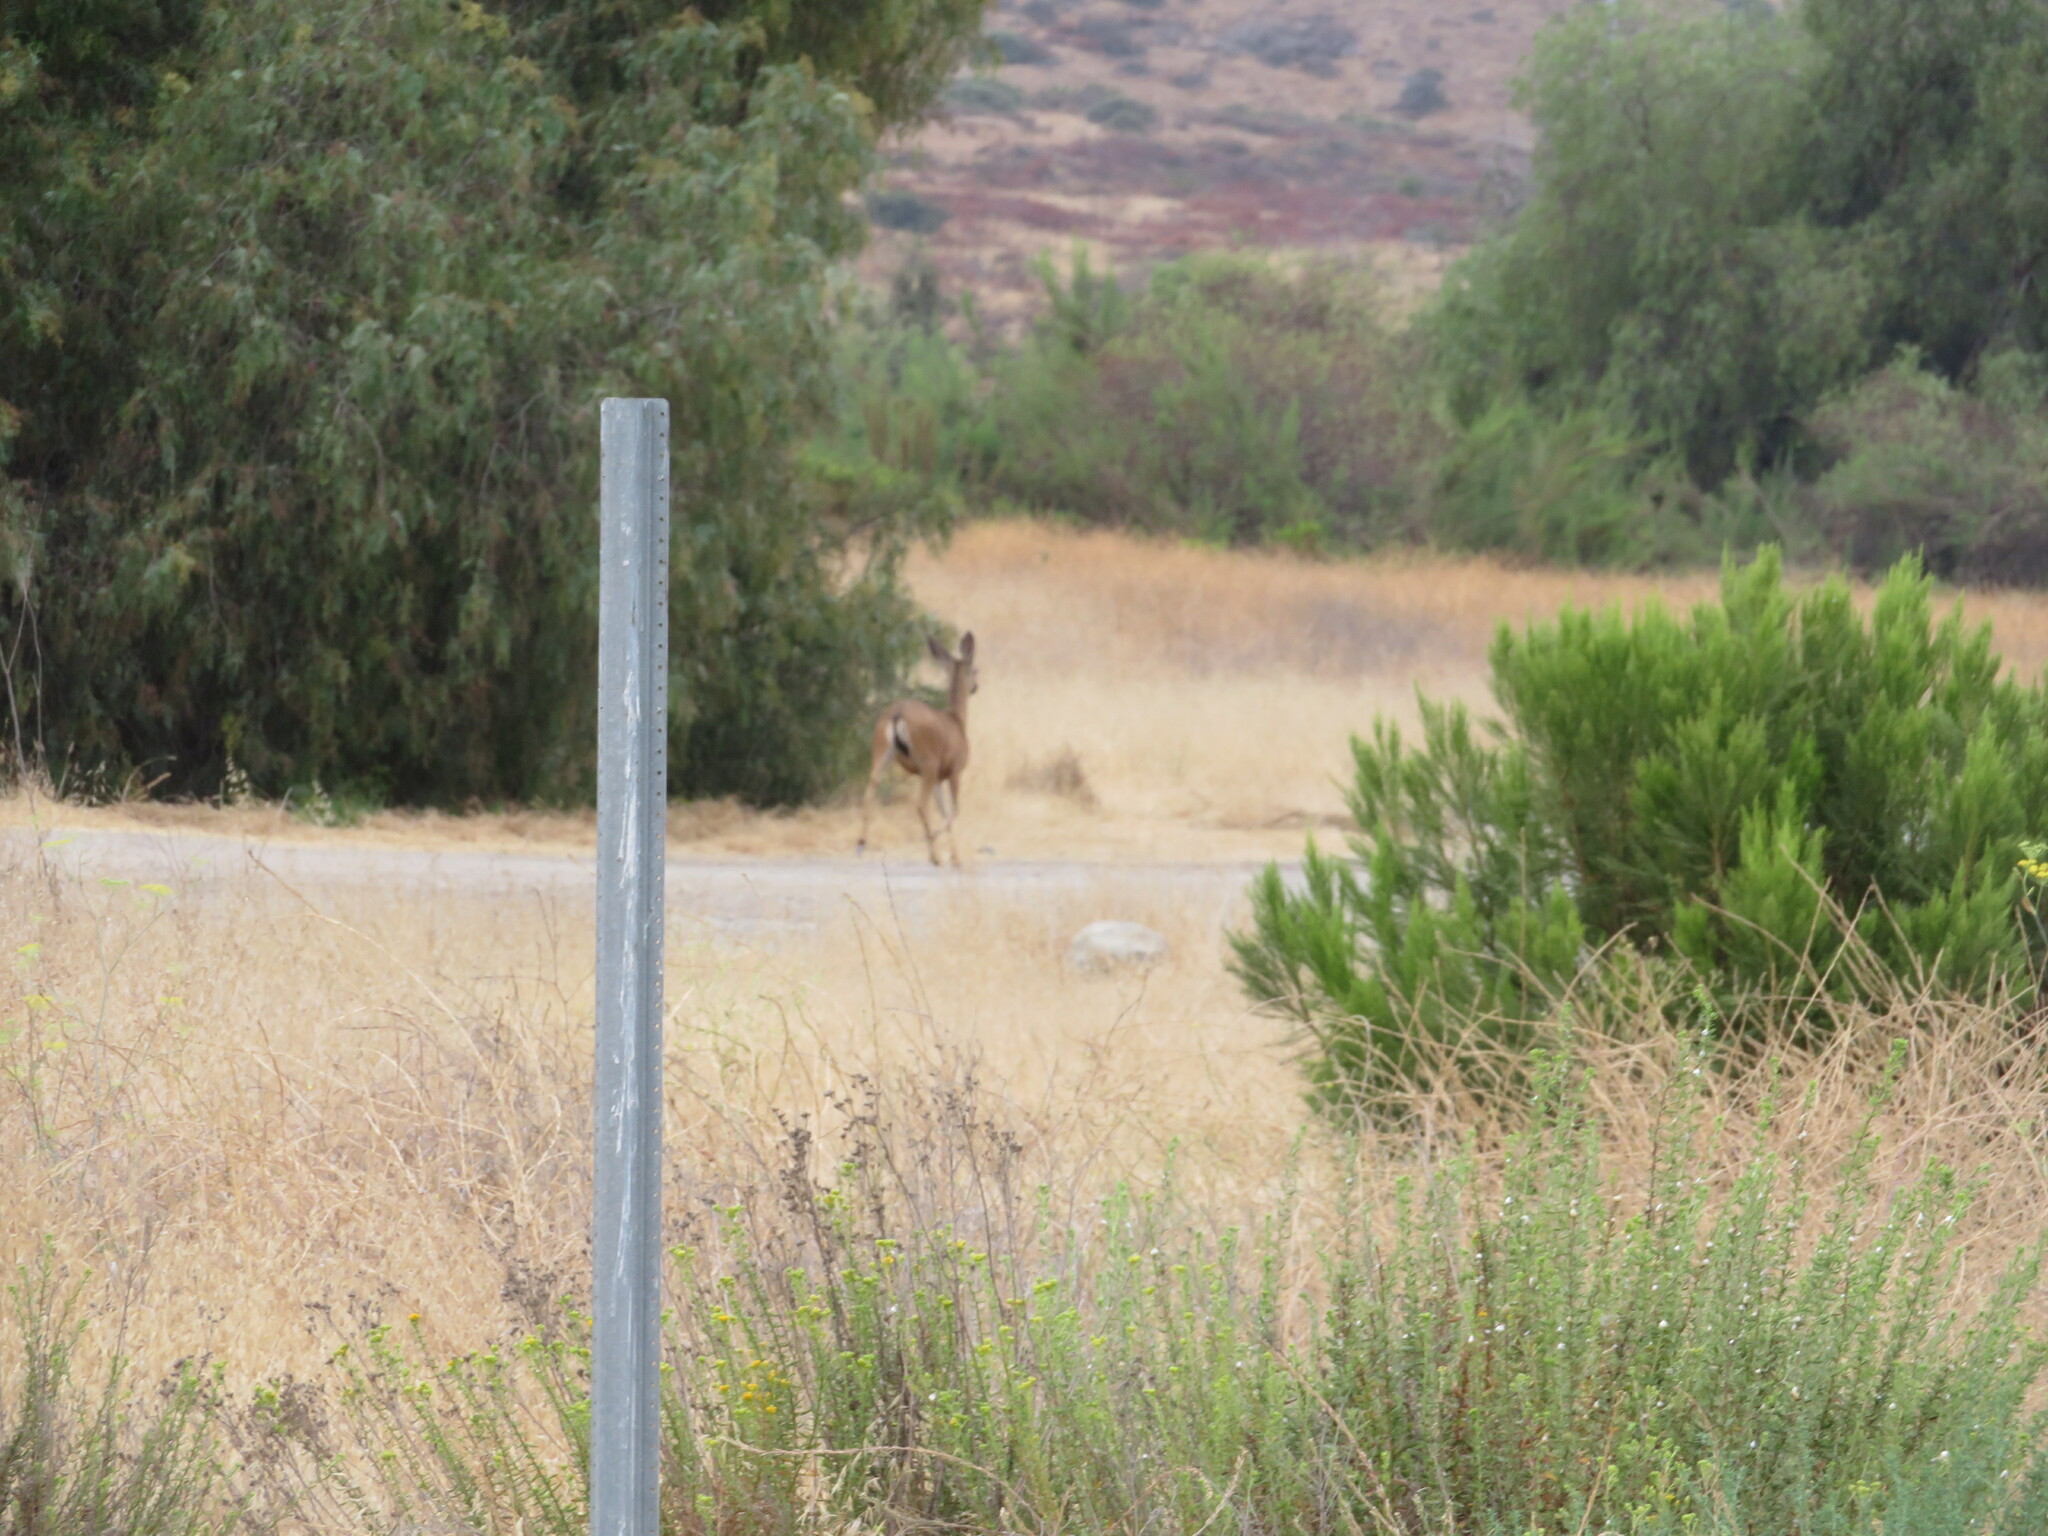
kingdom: Animalia
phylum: Chordata
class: Mammalia
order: Artiodactyla
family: Cervidae
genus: Odocoileus
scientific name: Odocoileus hemionus
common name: Mule deer
